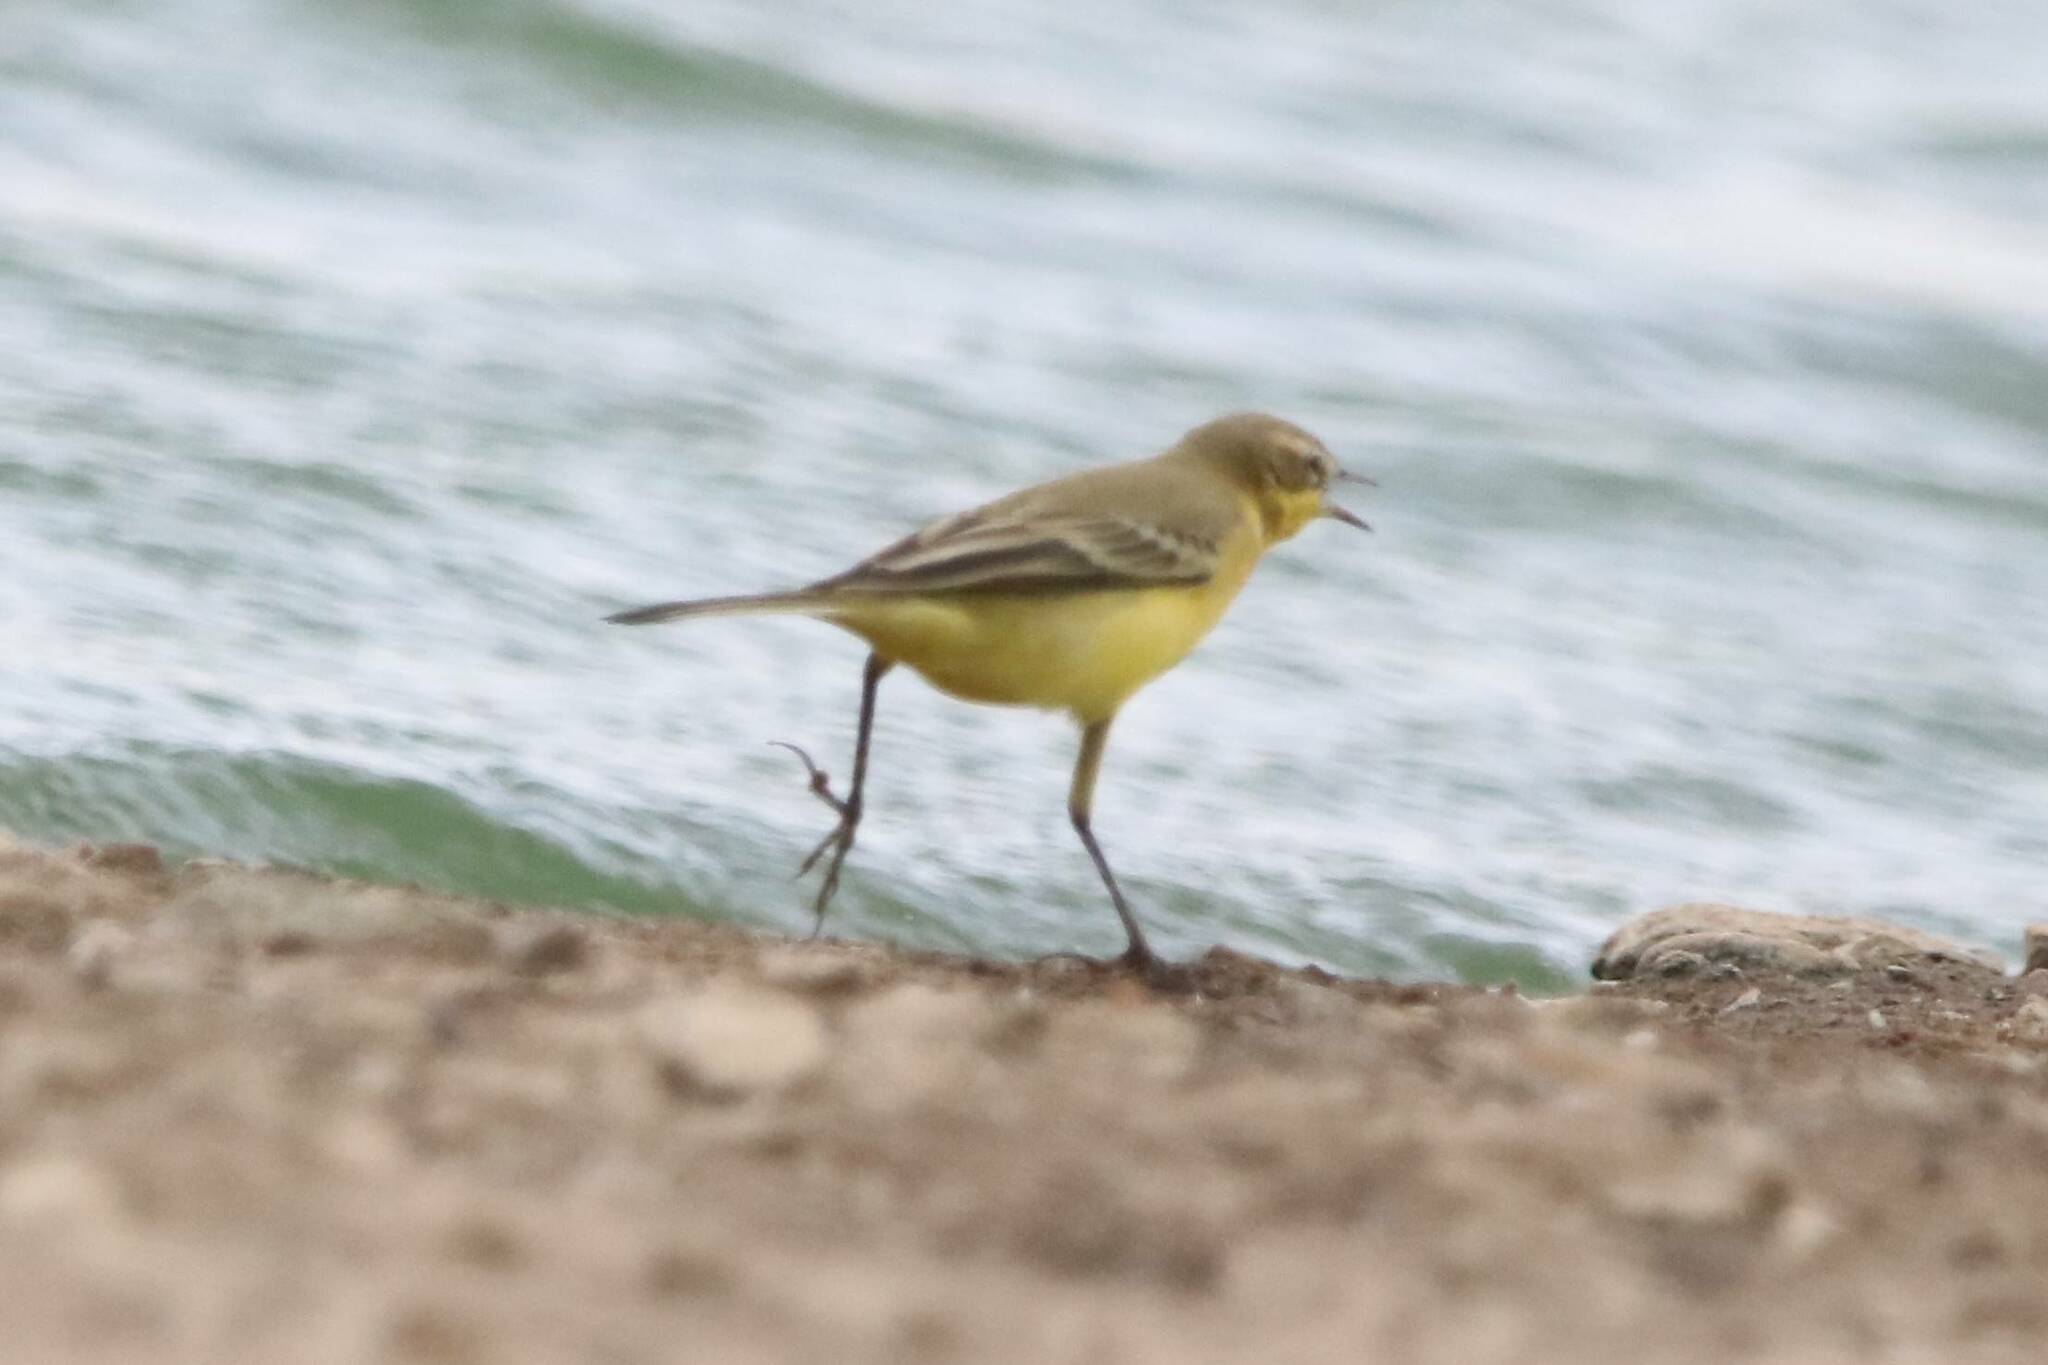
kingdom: Animalia
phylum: Chordata
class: Aves
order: Passeriformes
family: Motacillidae
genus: Motacilla
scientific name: Motacilla flava
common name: Western yellow wagtail
